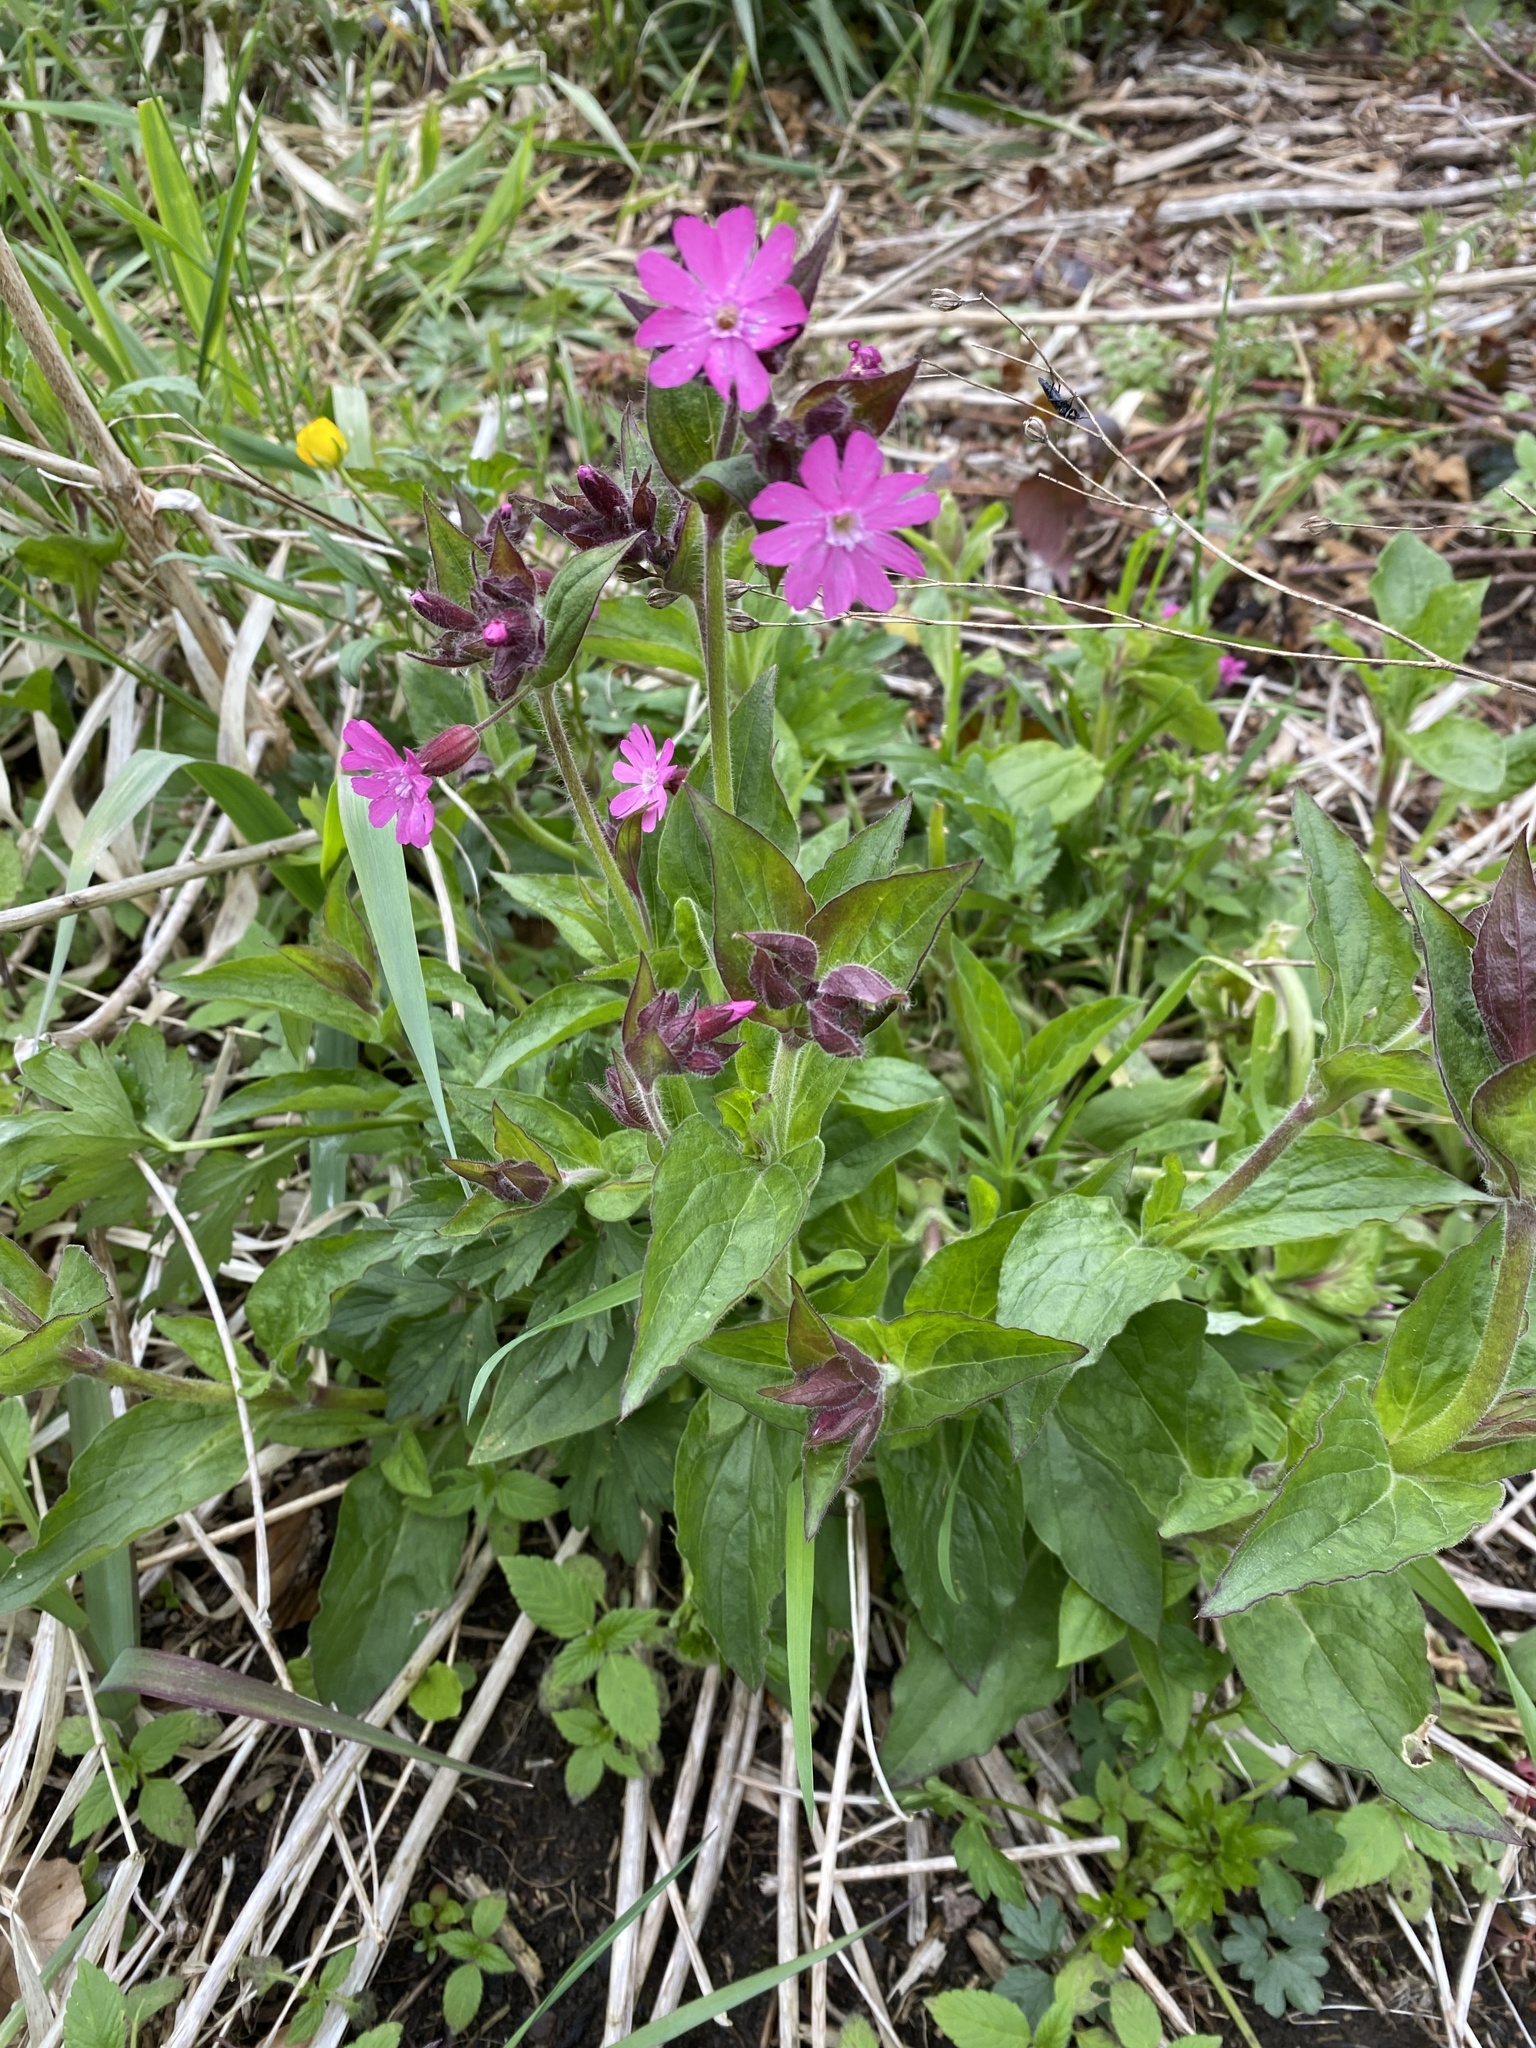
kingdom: Plantae
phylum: Tracheophyta
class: Magnoliopsida
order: Caryophyllales
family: Caryophyllaceae
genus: Silene
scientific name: Silene dioica
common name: Red campion
